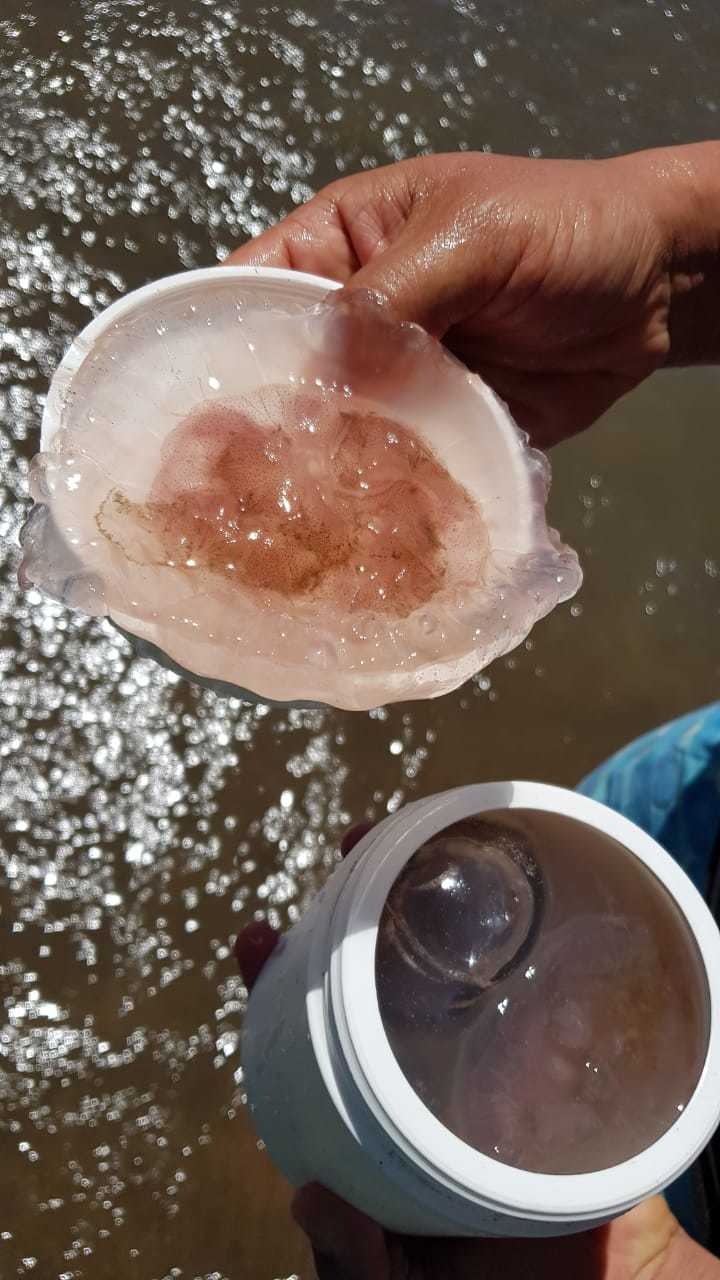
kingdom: Animalia
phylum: Cnidaria
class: Scyphozoa
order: Semaeostomeae
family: Pelagiidae
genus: Chrysaora
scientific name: Chrysaora lactea
